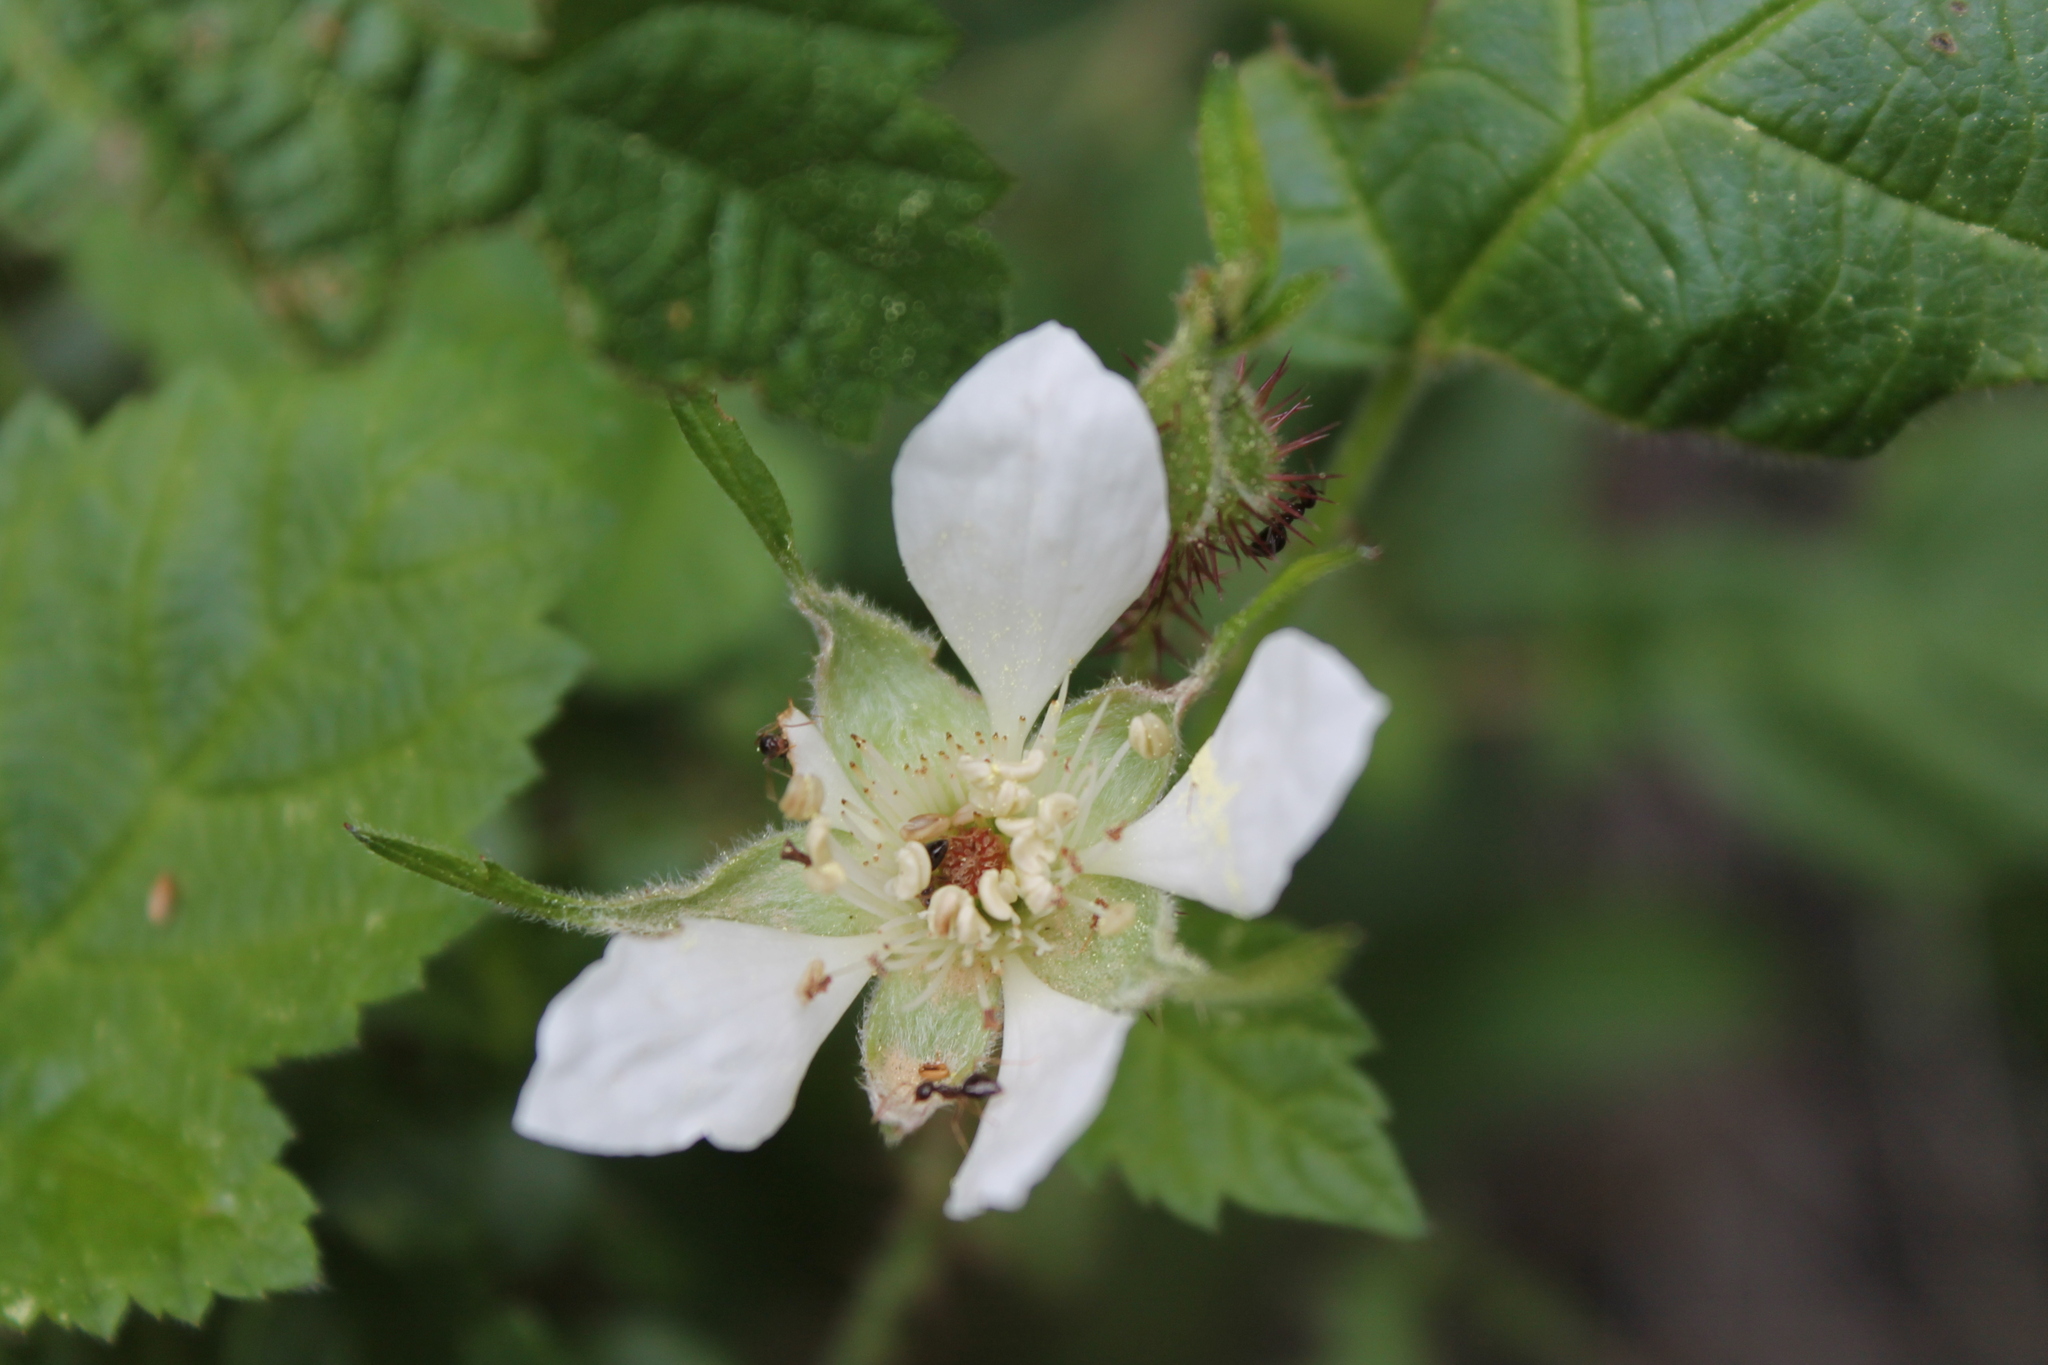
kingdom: Plantae
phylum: Tracheophyta
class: Magnoliopsida
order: Rosales
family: Rosaceae
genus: Rubus
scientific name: Rubus ursinus
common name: Pacific blackberry
